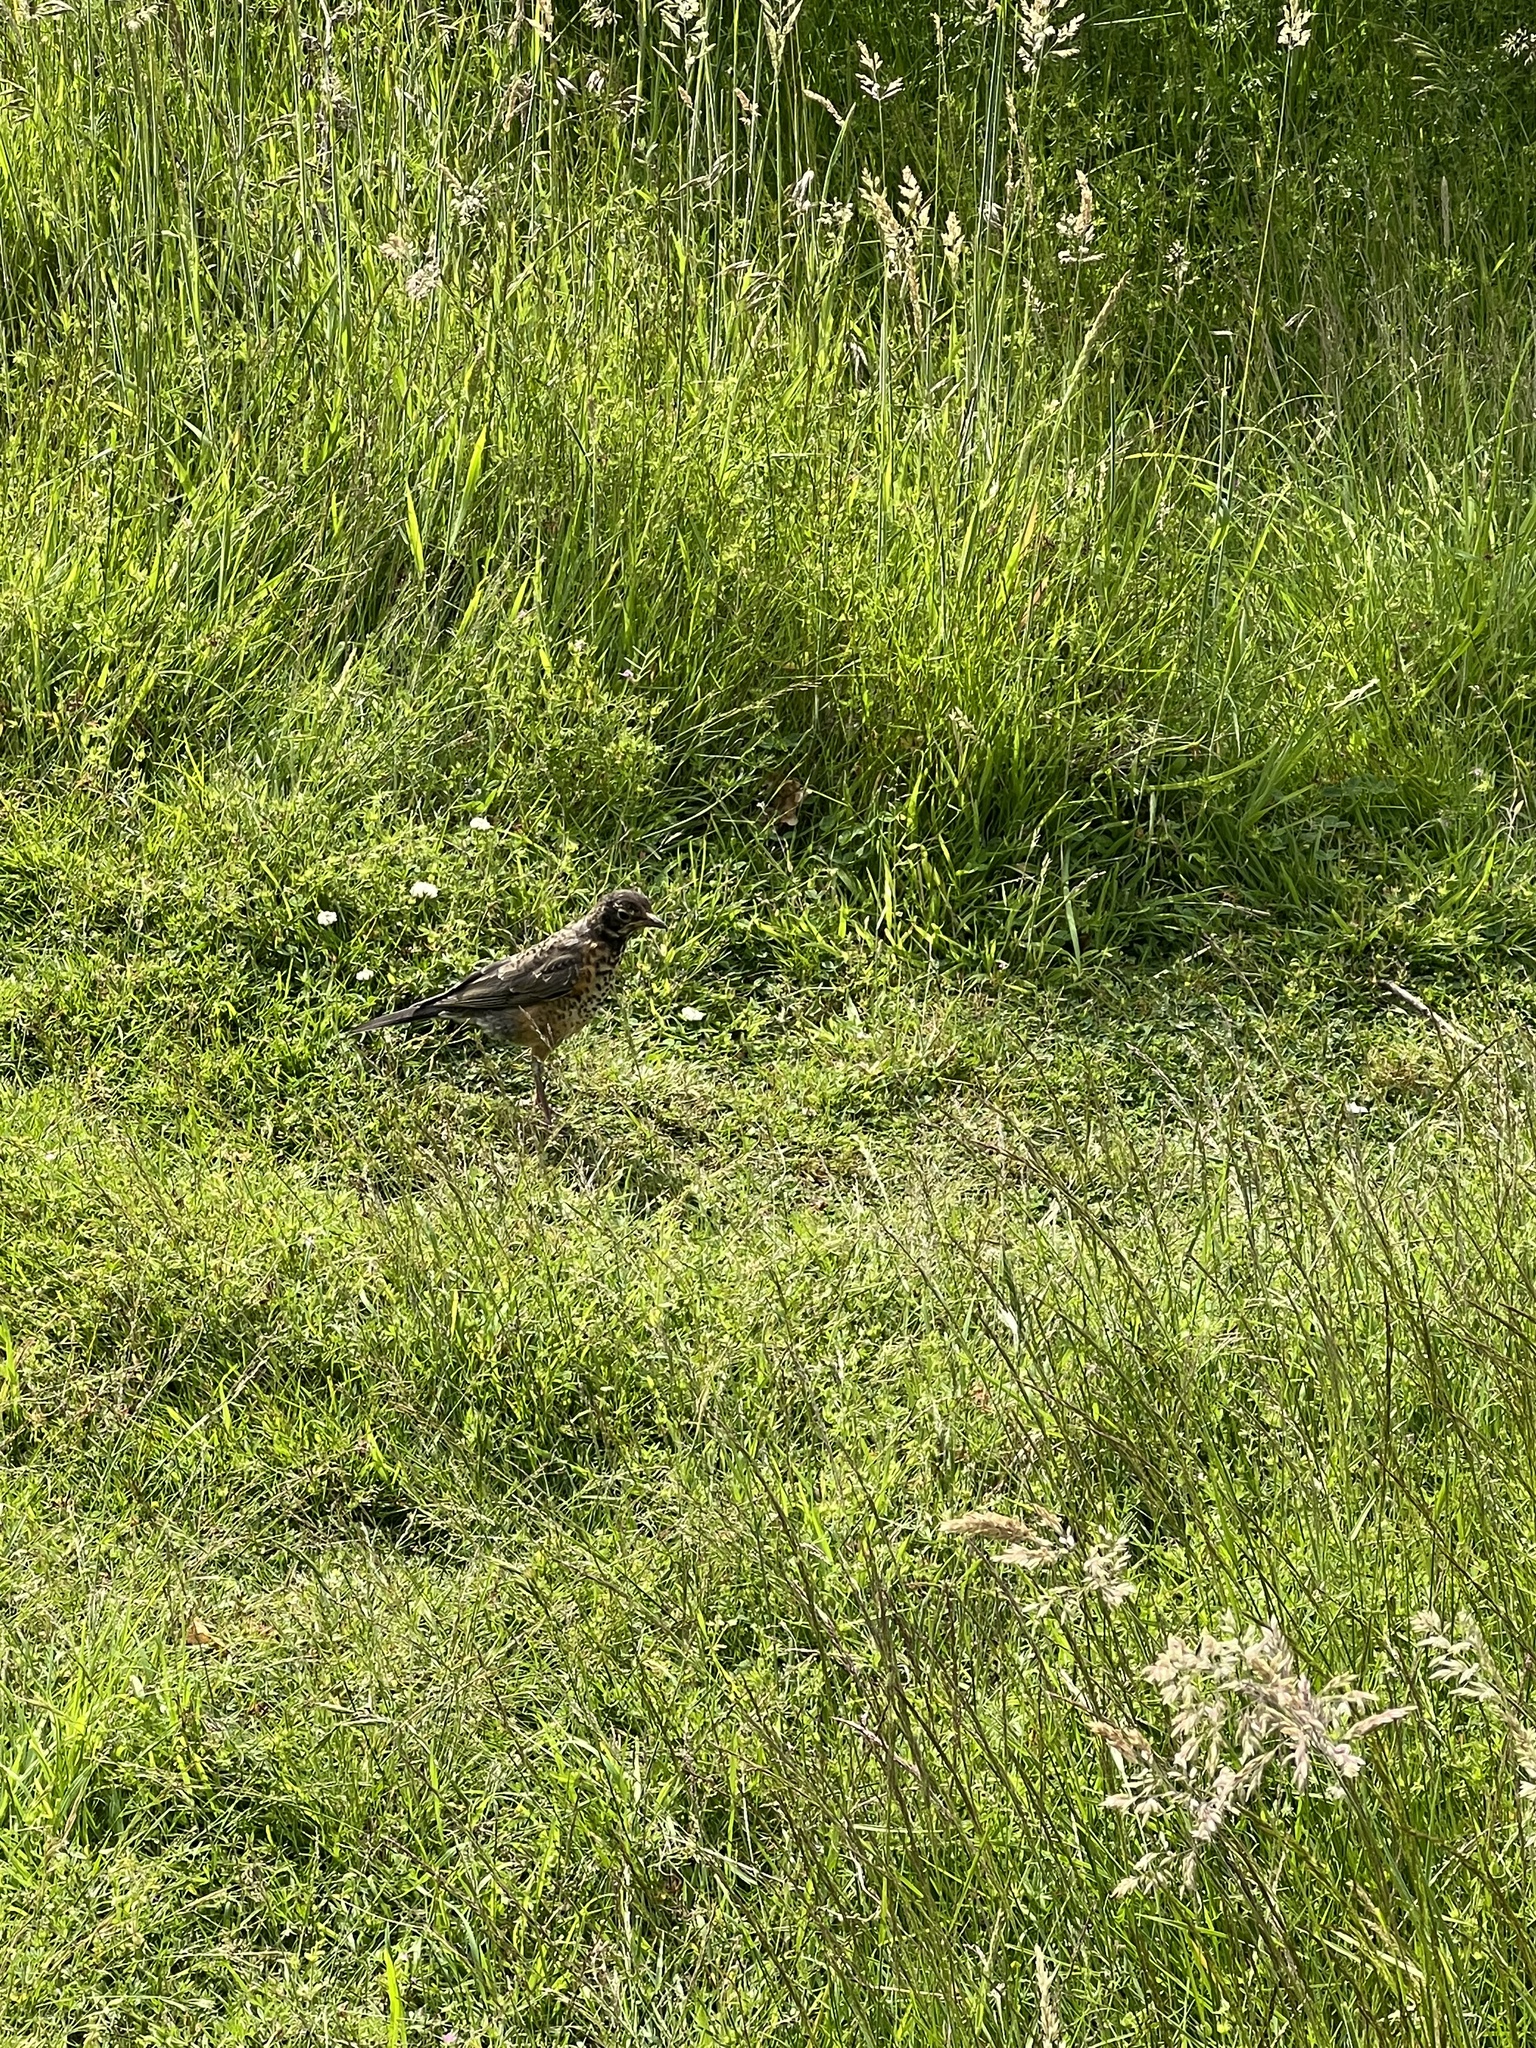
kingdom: Animalia
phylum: Chordata
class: Aves
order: Passeriformes
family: Turdidae
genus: Turdus
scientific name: Turdus migratorius
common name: American robin
